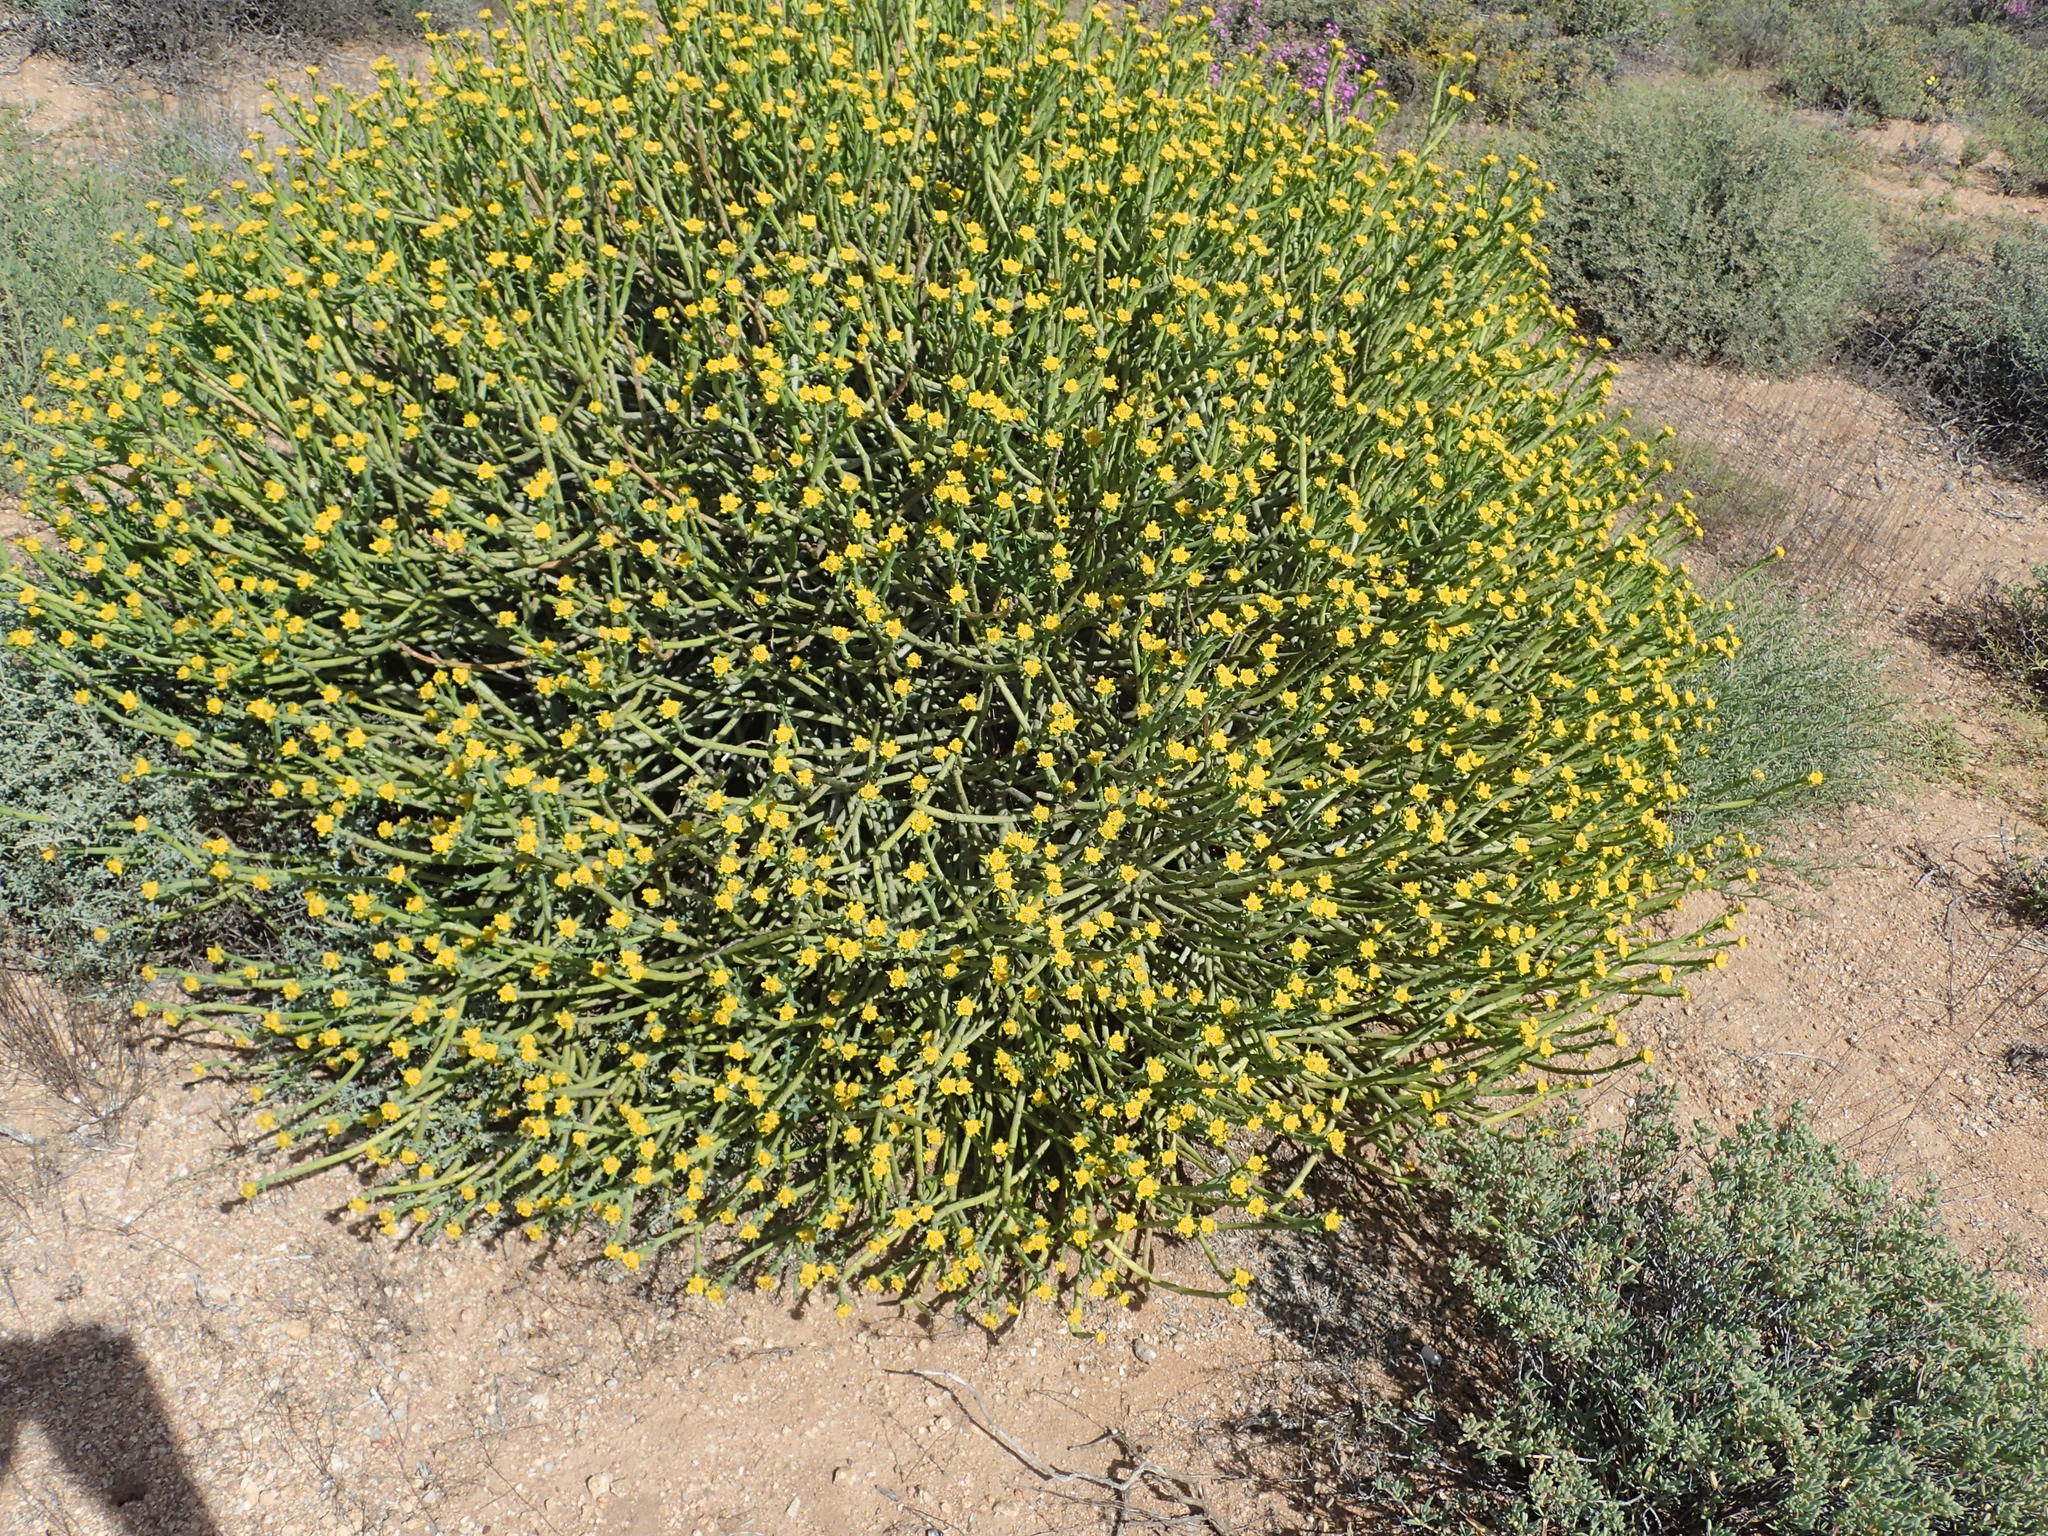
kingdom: Plantae
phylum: Tracheophyta
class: Magnoliopsida
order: Malpighiales
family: Euphorbiaceae
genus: Euphorbia
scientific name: Euphorbia mauritanica
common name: Jackal's-food
